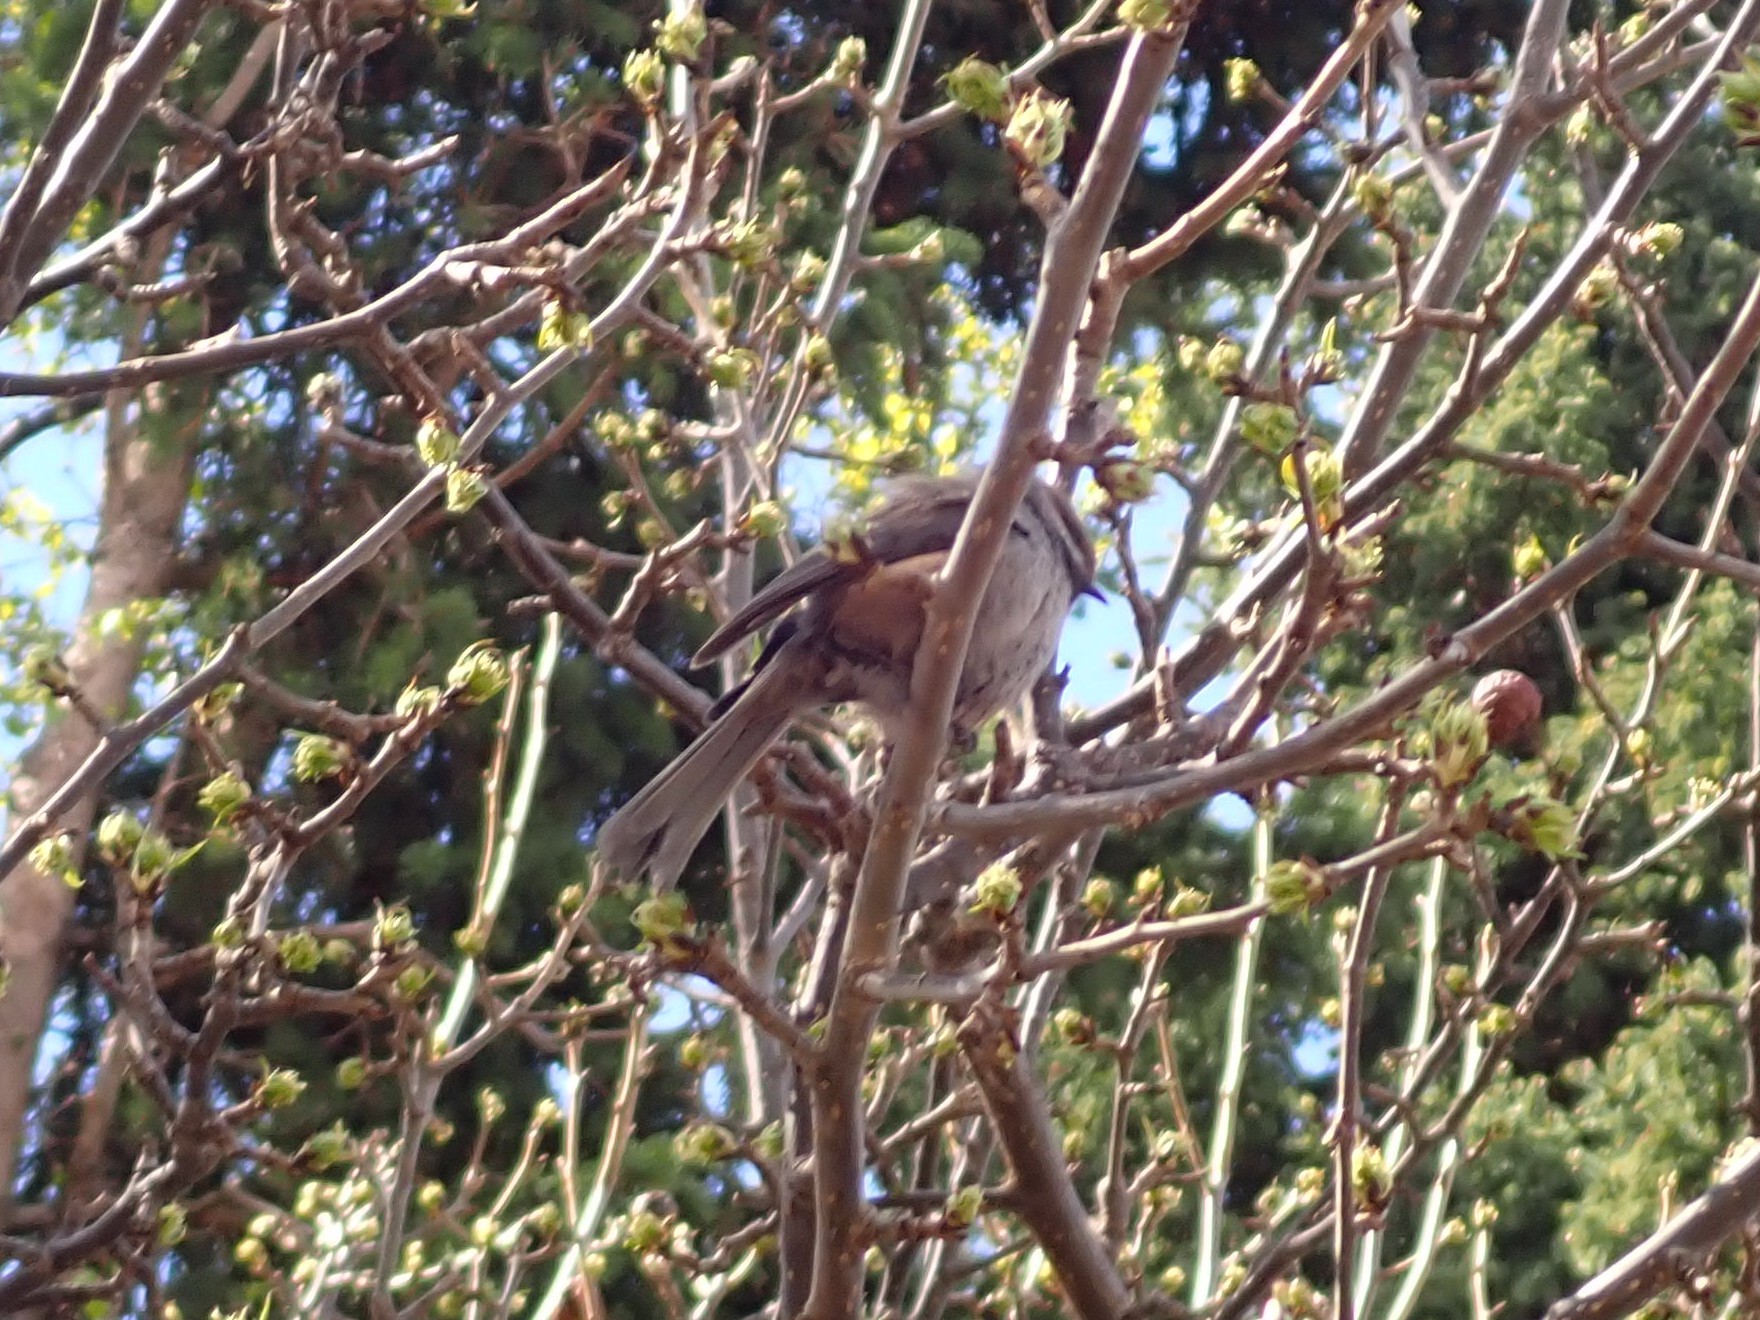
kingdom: Animalia
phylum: Chordata
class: Aves
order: Passeriformes
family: Paridae
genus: Poecile
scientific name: Poecile hudsonicus
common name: Boreal chickadee
